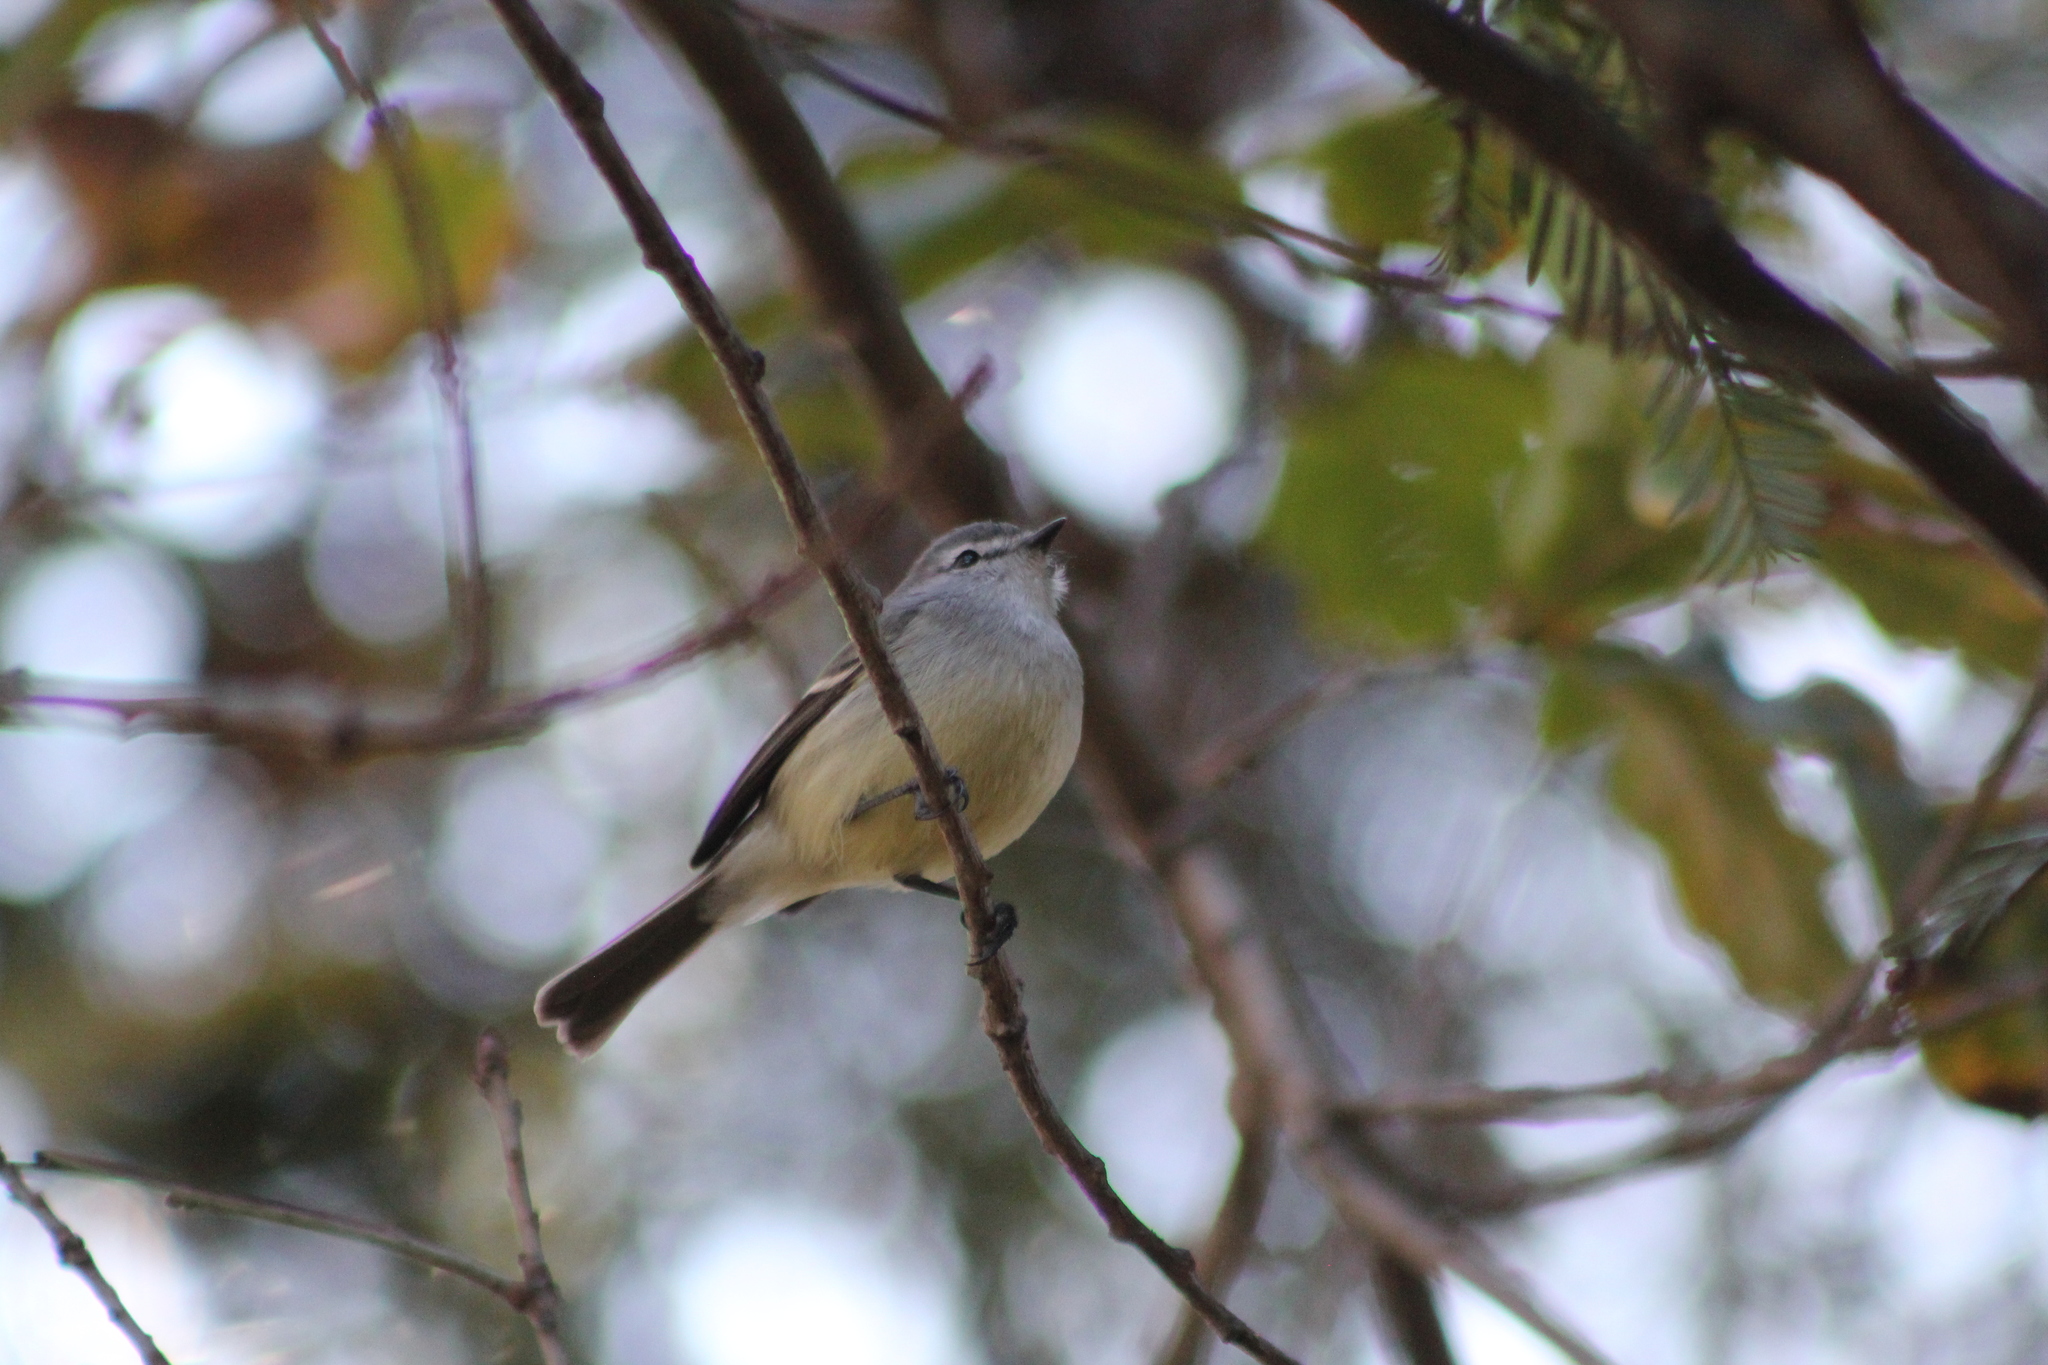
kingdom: Animalia
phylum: Chordata
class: Aves
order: Passeriformes
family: Tyrannidae
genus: Serpophaga
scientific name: Serpophaga griseicapilla
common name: Straneck's tyrannulet
